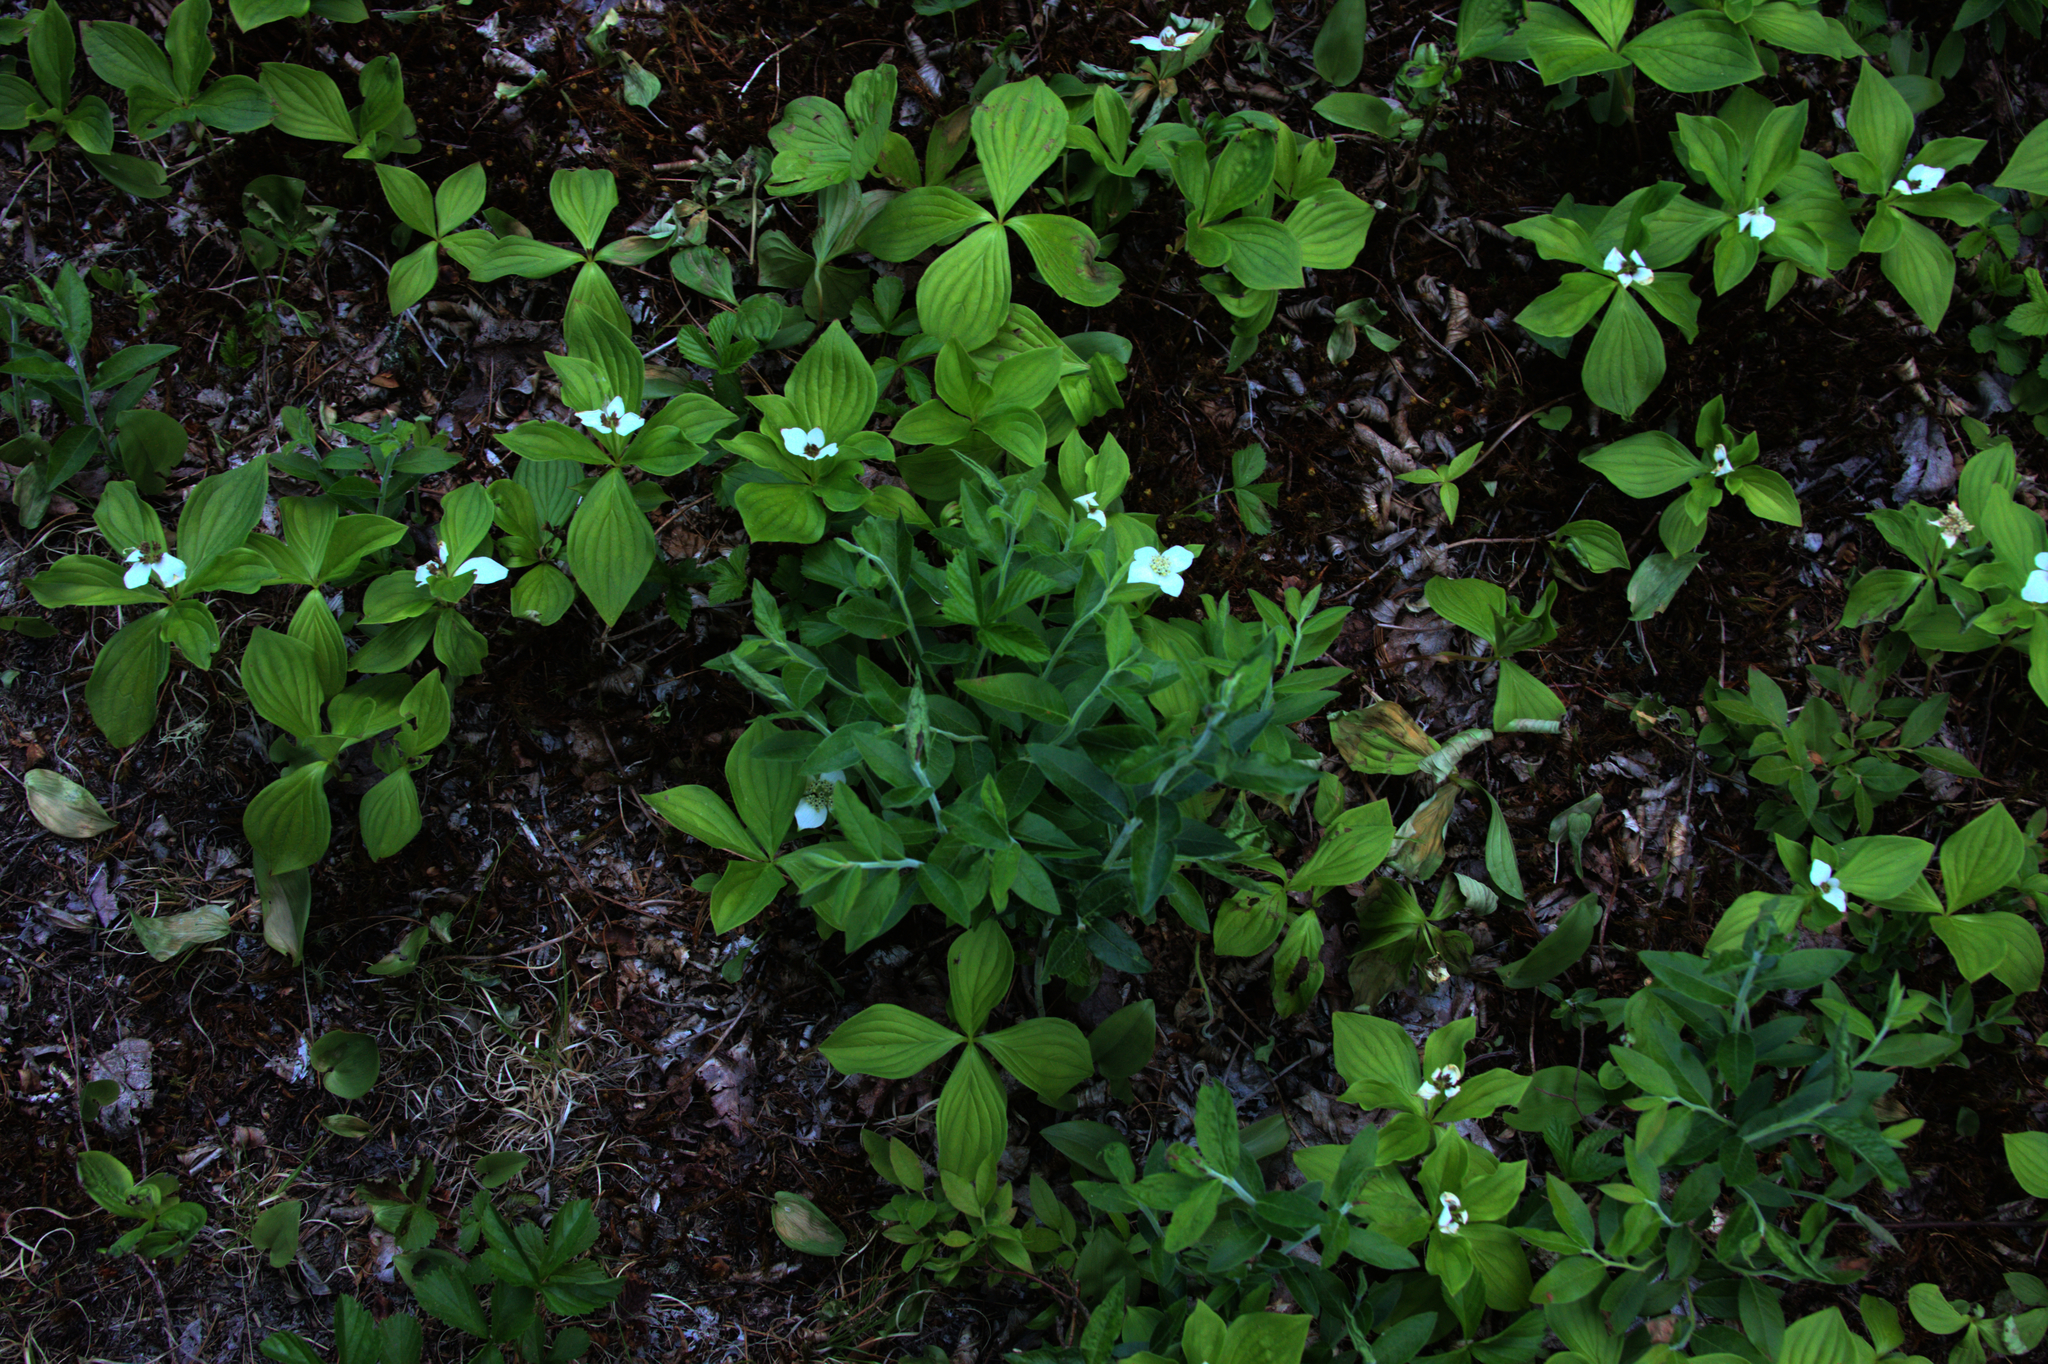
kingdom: Plantae
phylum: Tracheophyta
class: Magnoliopsida
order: Cornales
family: Cornaceae
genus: Cornus
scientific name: Cornus canadensis
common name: Creeping dogwood
